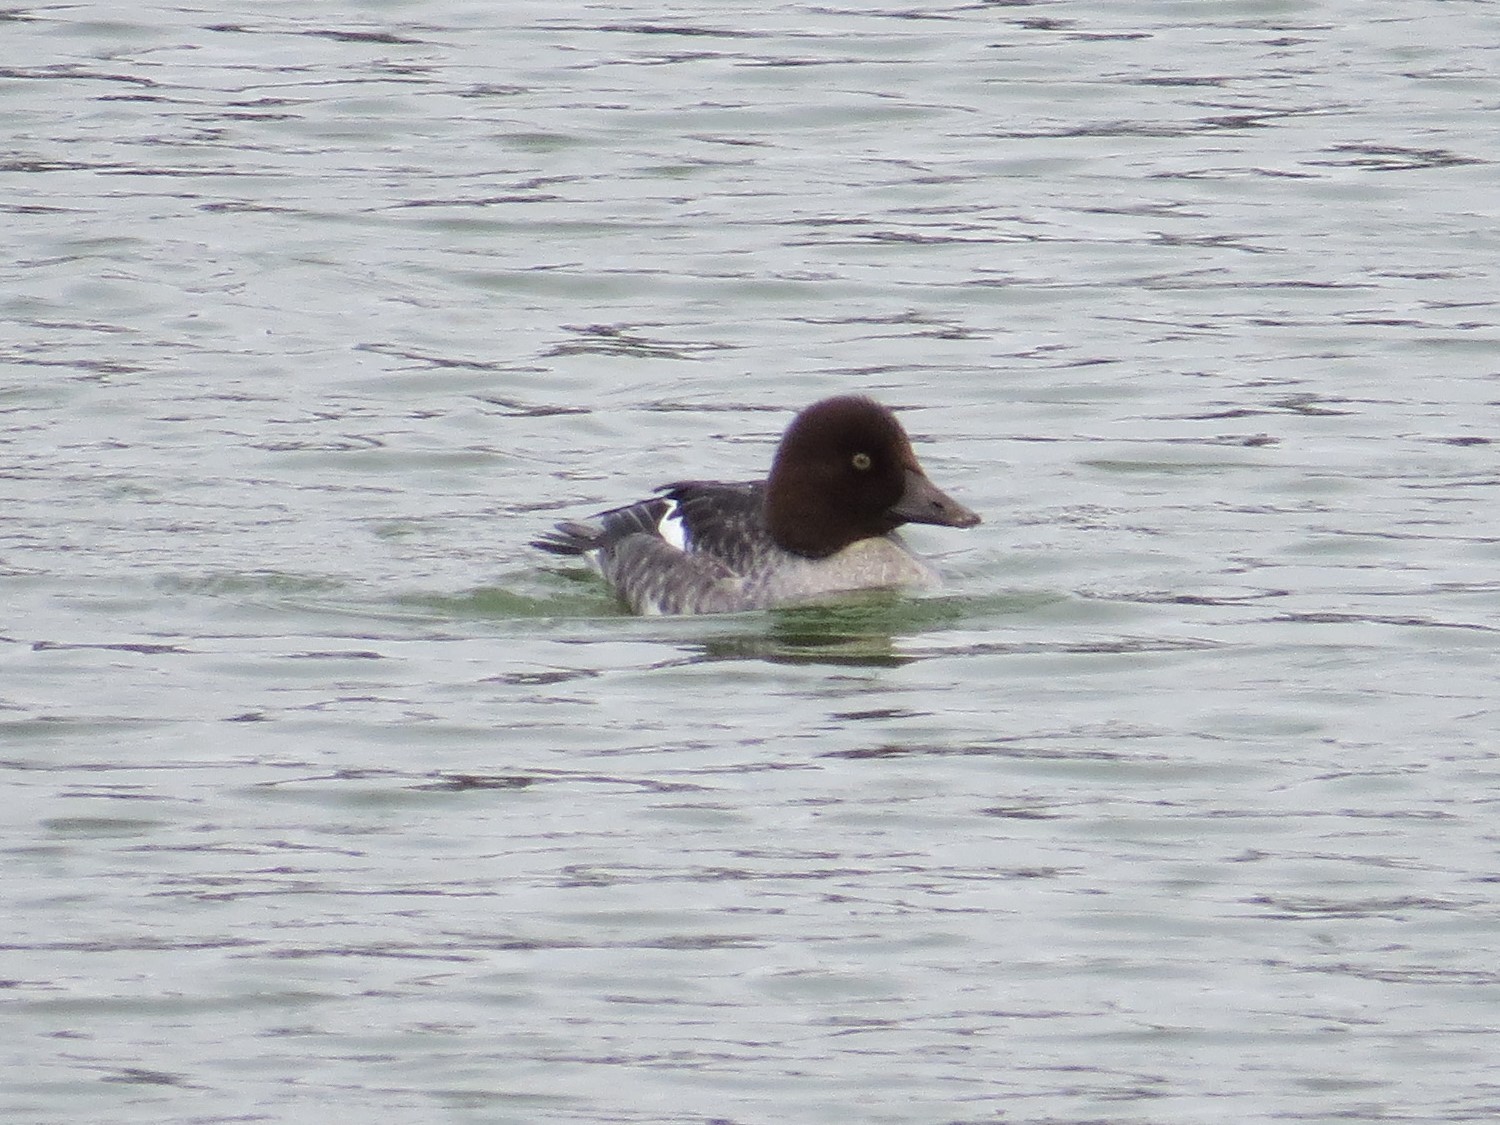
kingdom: Animalia
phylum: Chordata
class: Aves
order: Anseriformes
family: Anatidae
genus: Bucephala
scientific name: Bucephala clangula
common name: Common goldeneye
